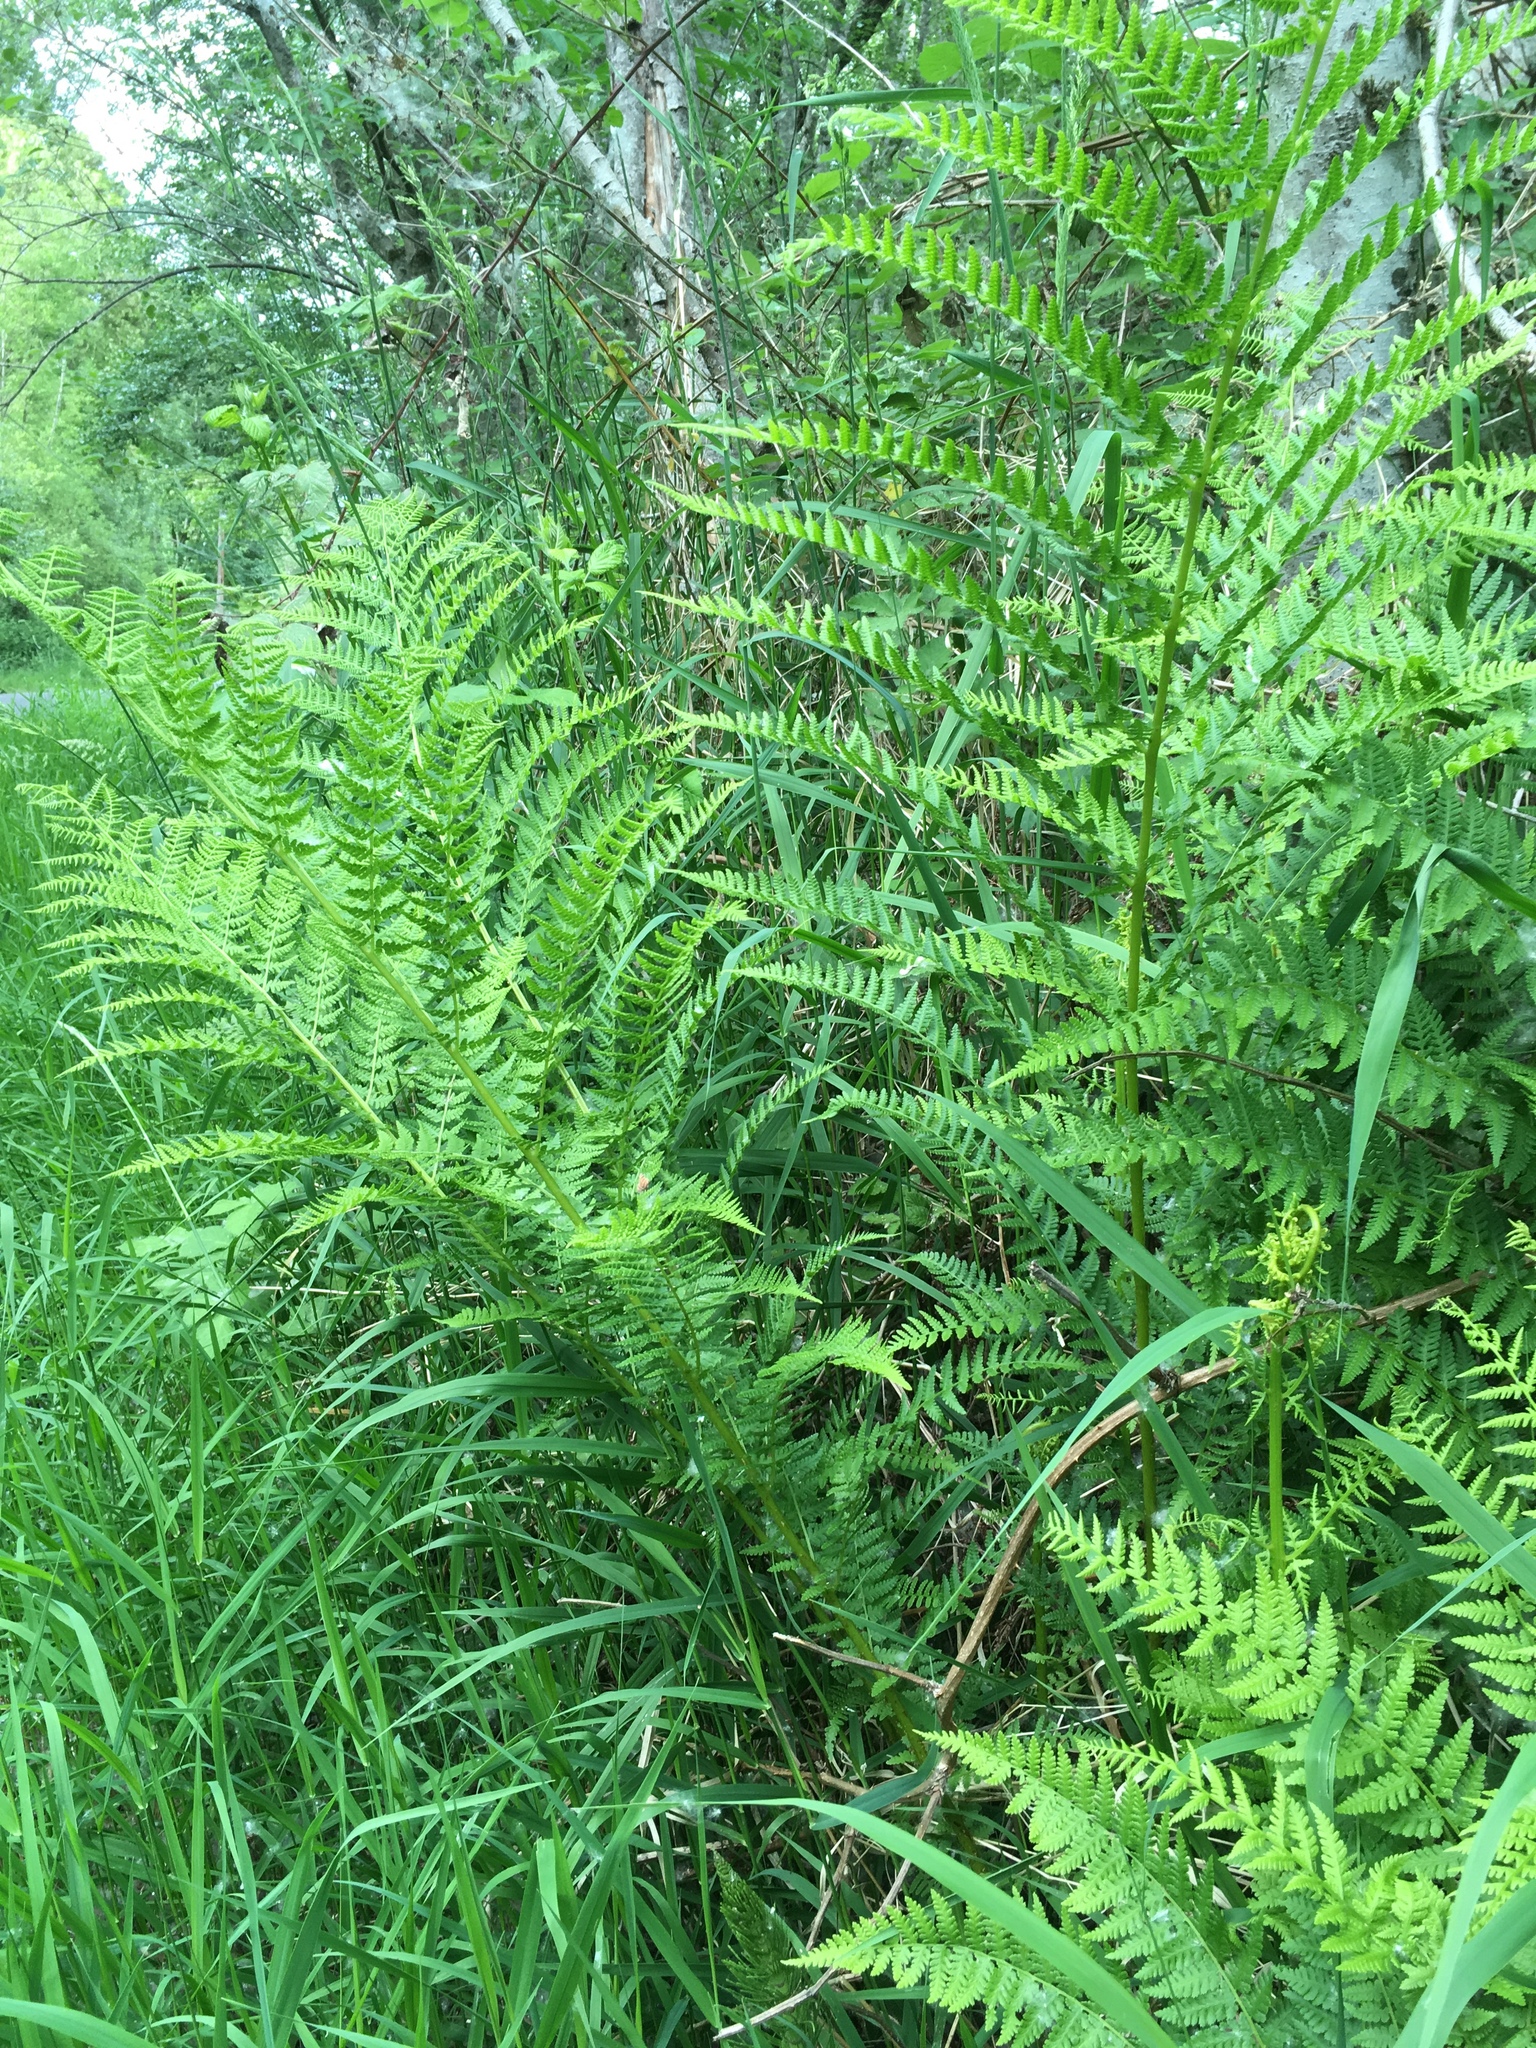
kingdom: Plantae
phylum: Tracheophyta
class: Polypodiopsida
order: Polypodiales
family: Athyriaceae
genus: Athyrium
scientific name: Athyrium filix-femina
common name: Lady fern
